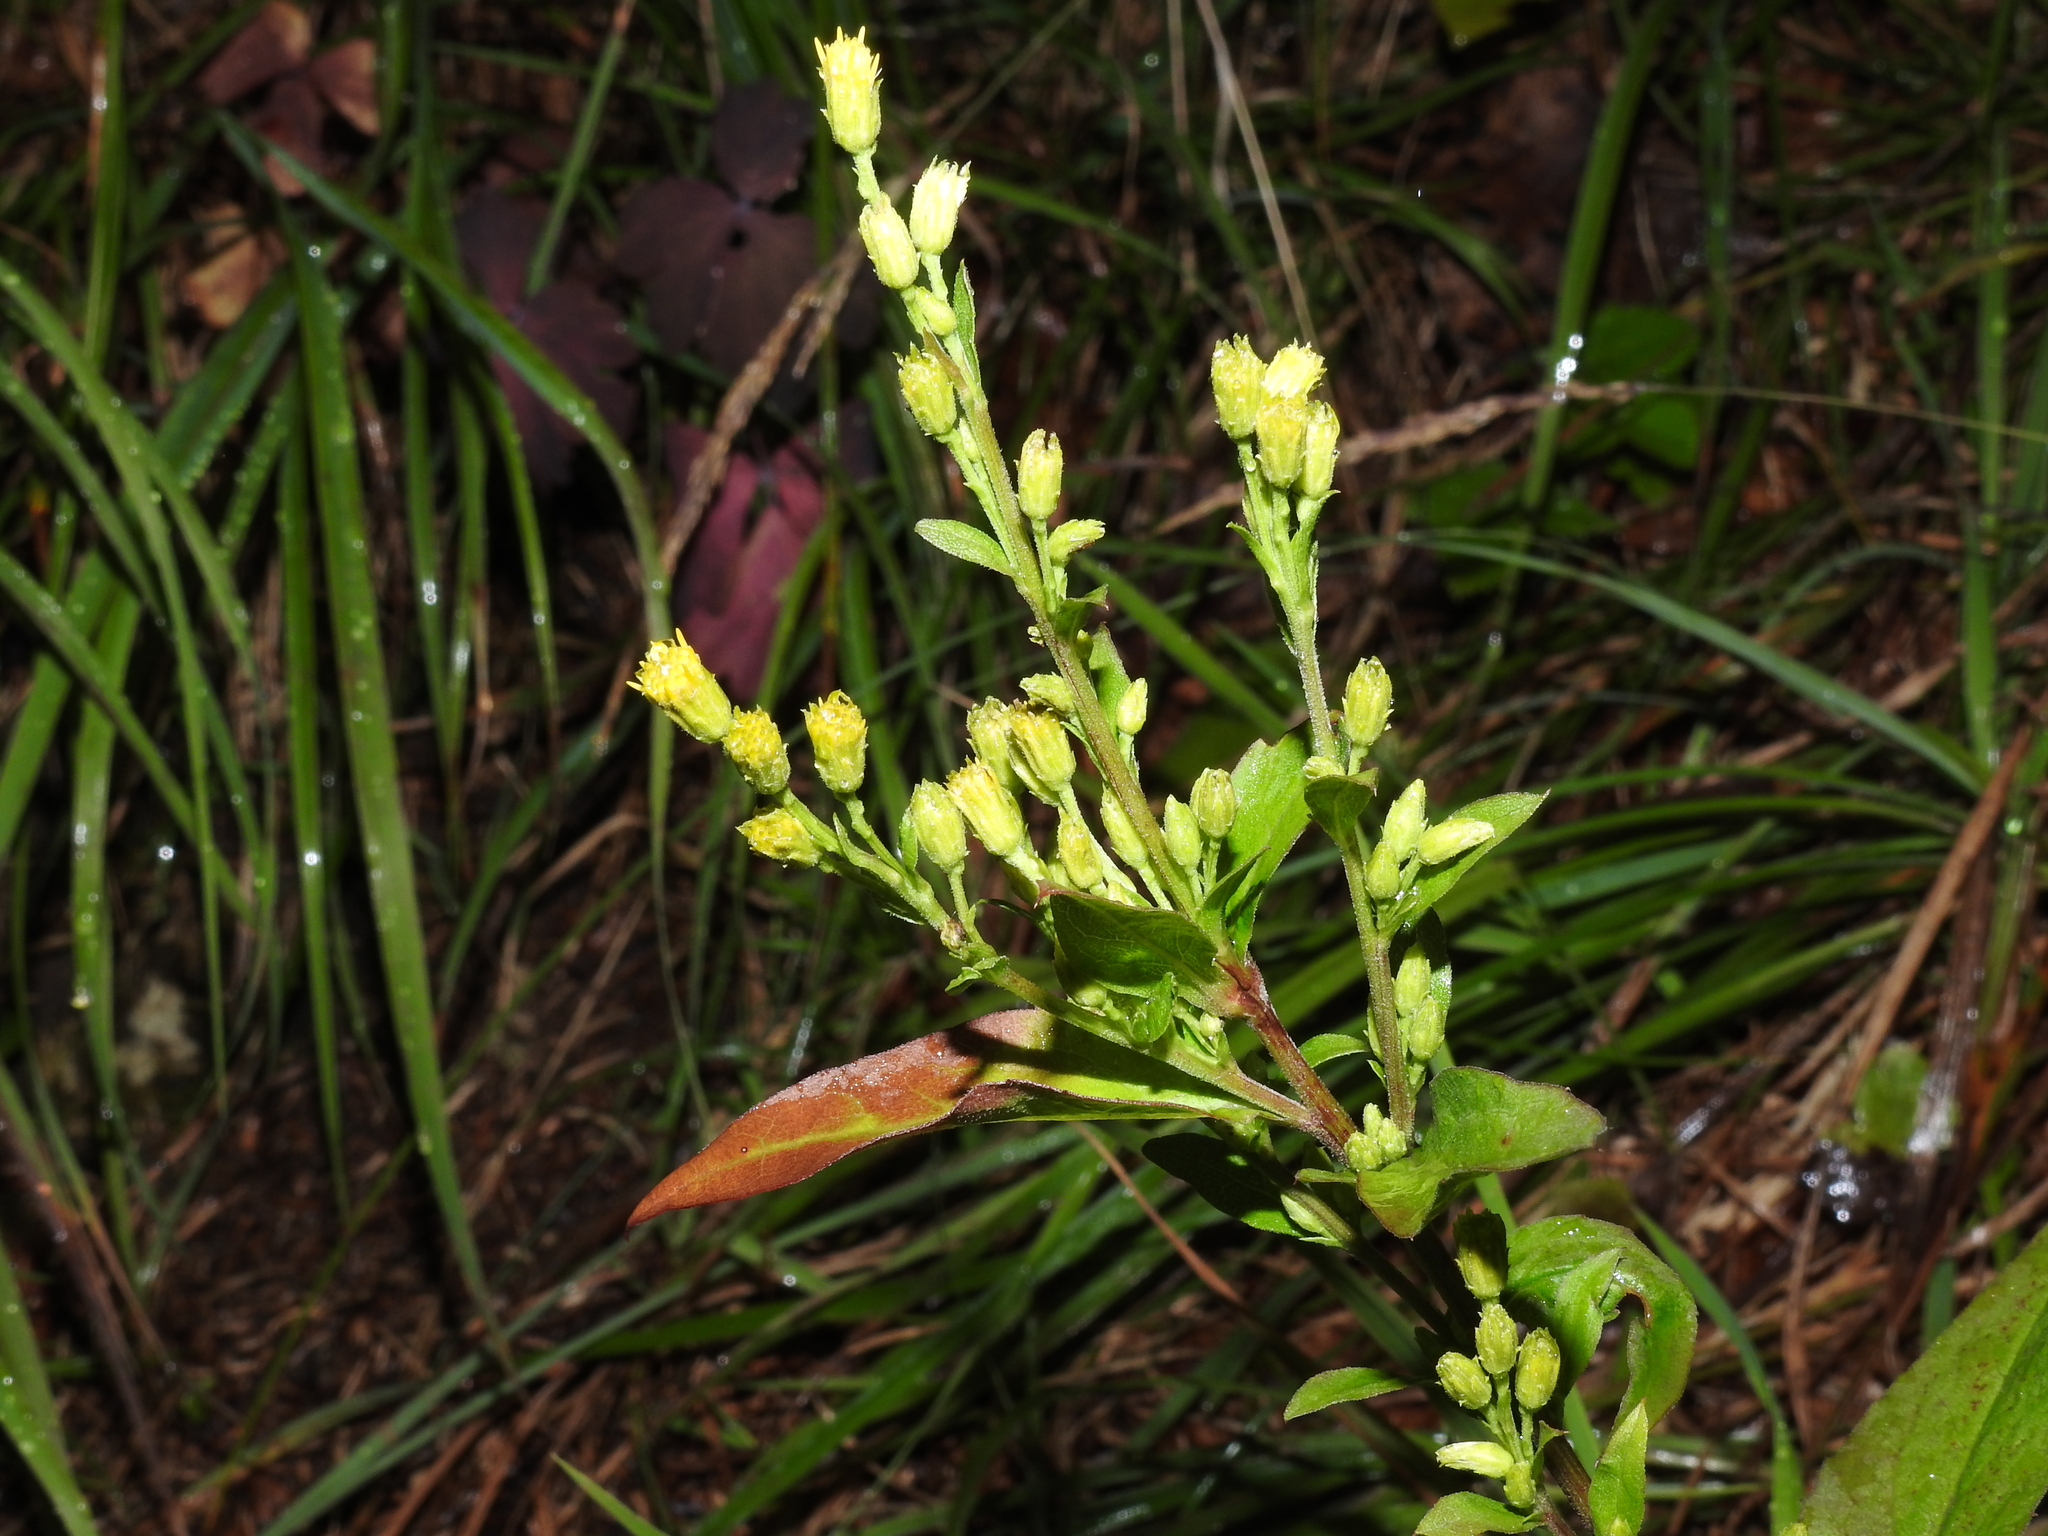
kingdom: Plantae
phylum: Tracheophyta
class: Magnoliopsida
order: Asterales
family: Asteraceae
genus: Solidago
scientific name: Solidago virgaurea
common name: Goldenrod
